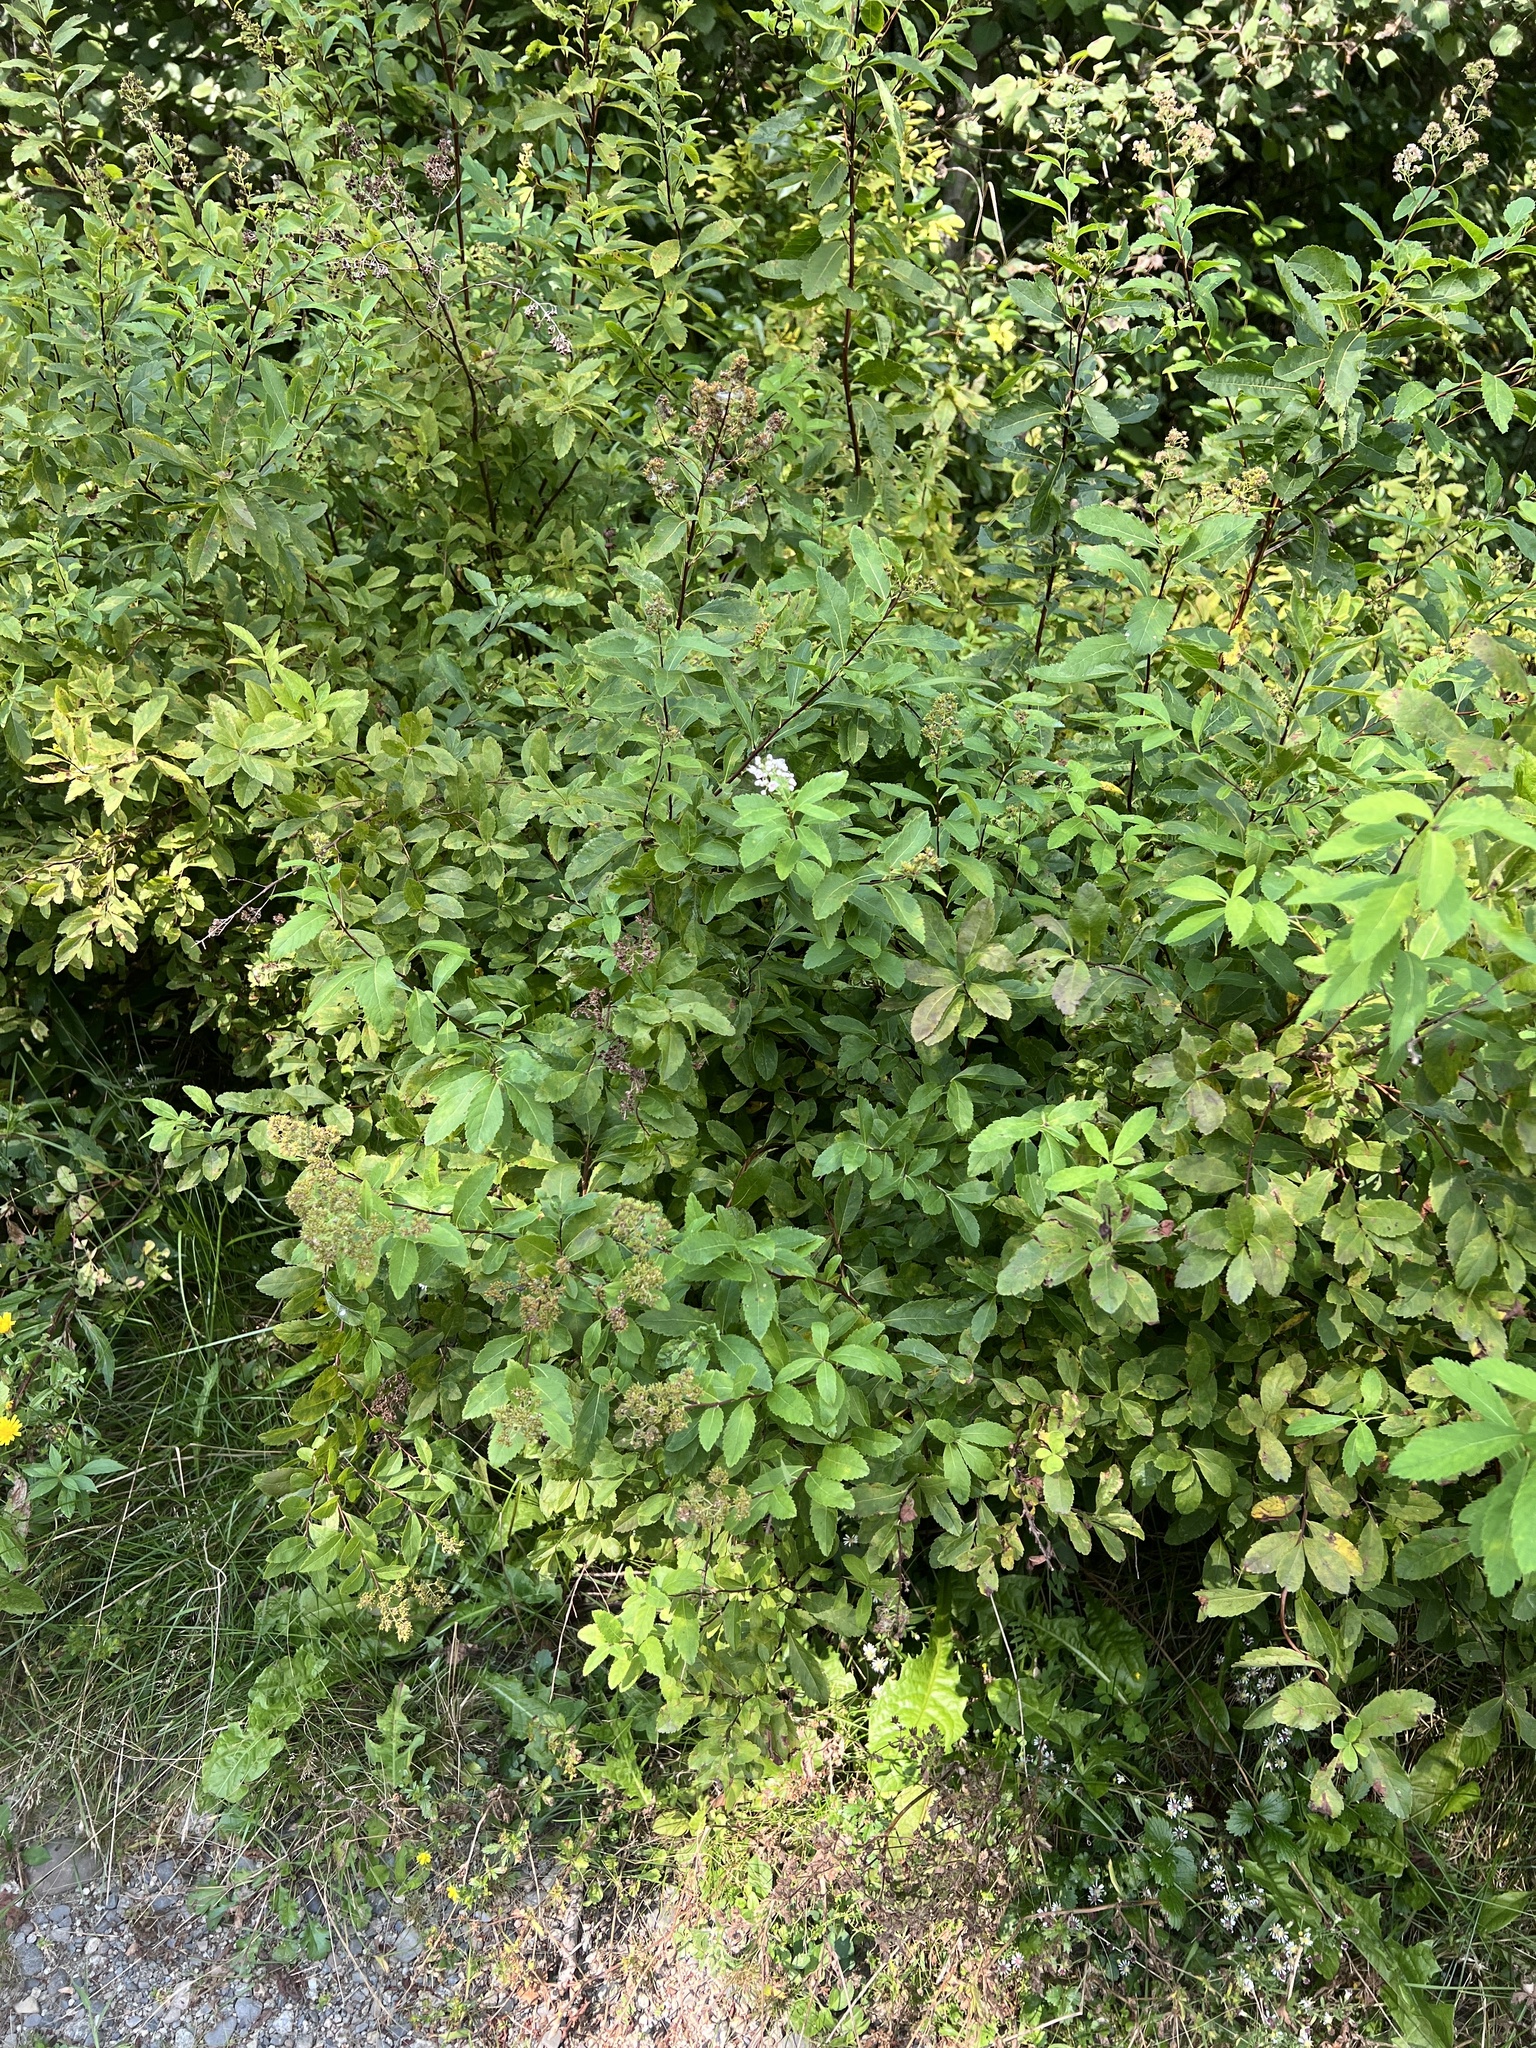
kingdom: Plantae
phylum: Tracheophyta
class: Magnoliopsida
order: Rosales
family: Rosaceae
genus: Spiraea
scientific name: Spiraea alba
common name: Pale bridewort
